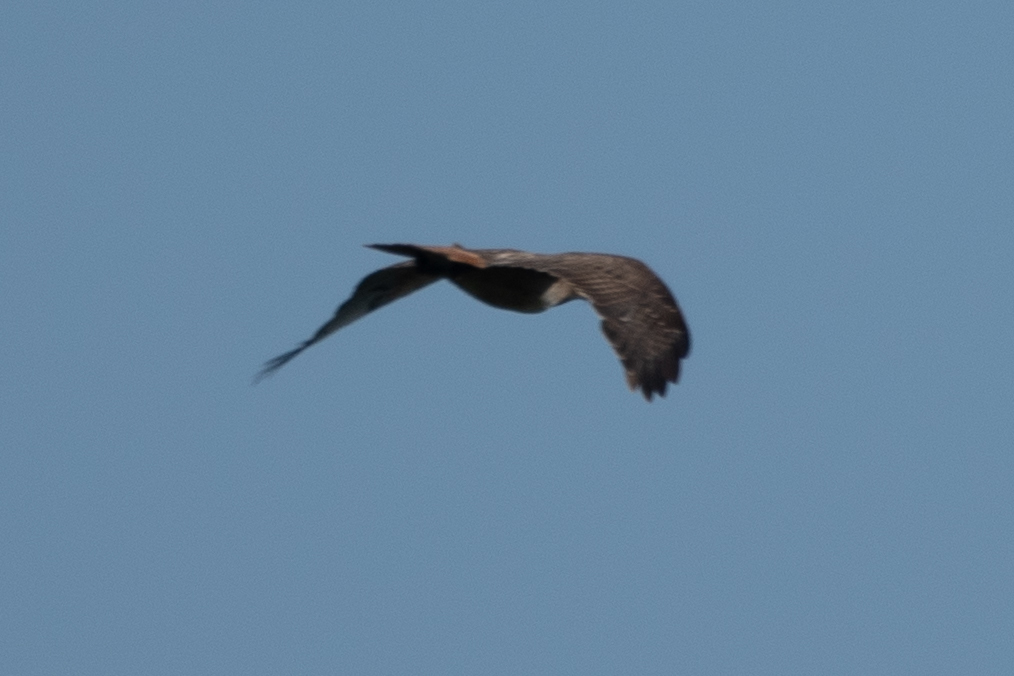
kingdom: Animalia
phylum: Chordata
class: Aves
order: Accipitriformes
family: Accipitridae
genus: Buteo
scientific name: Buteo jamaicensis
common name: Red-tailed hawk
